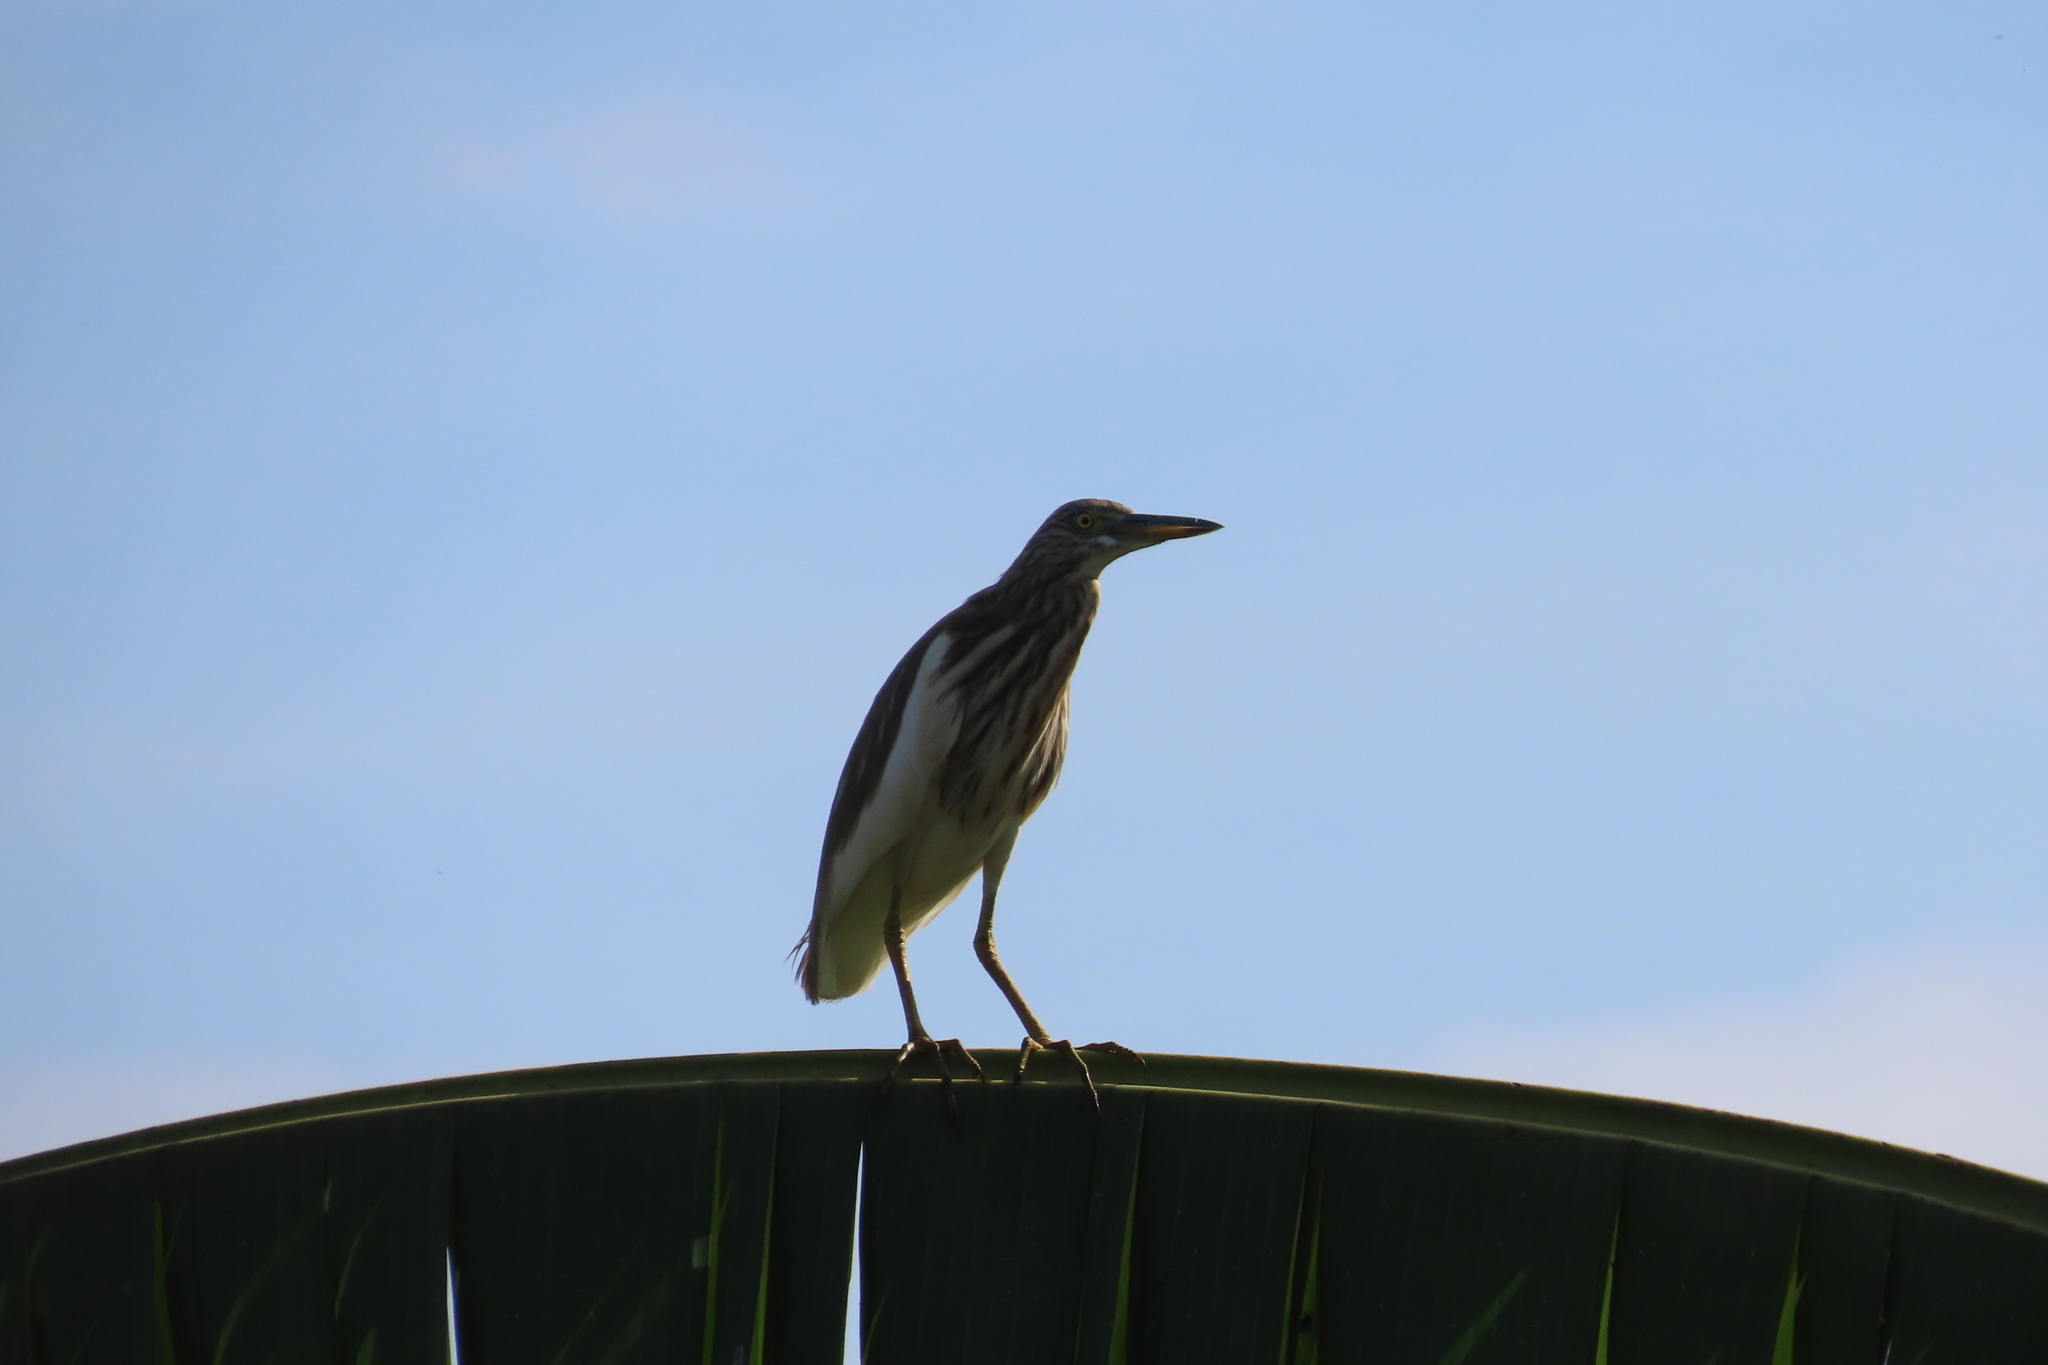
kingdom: Animalia
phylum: Chordata
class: Aves
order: Pelecaniformes
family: Ardeidae
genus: Ardeola
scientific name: Ardeola grayii
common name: Indian pond heron
